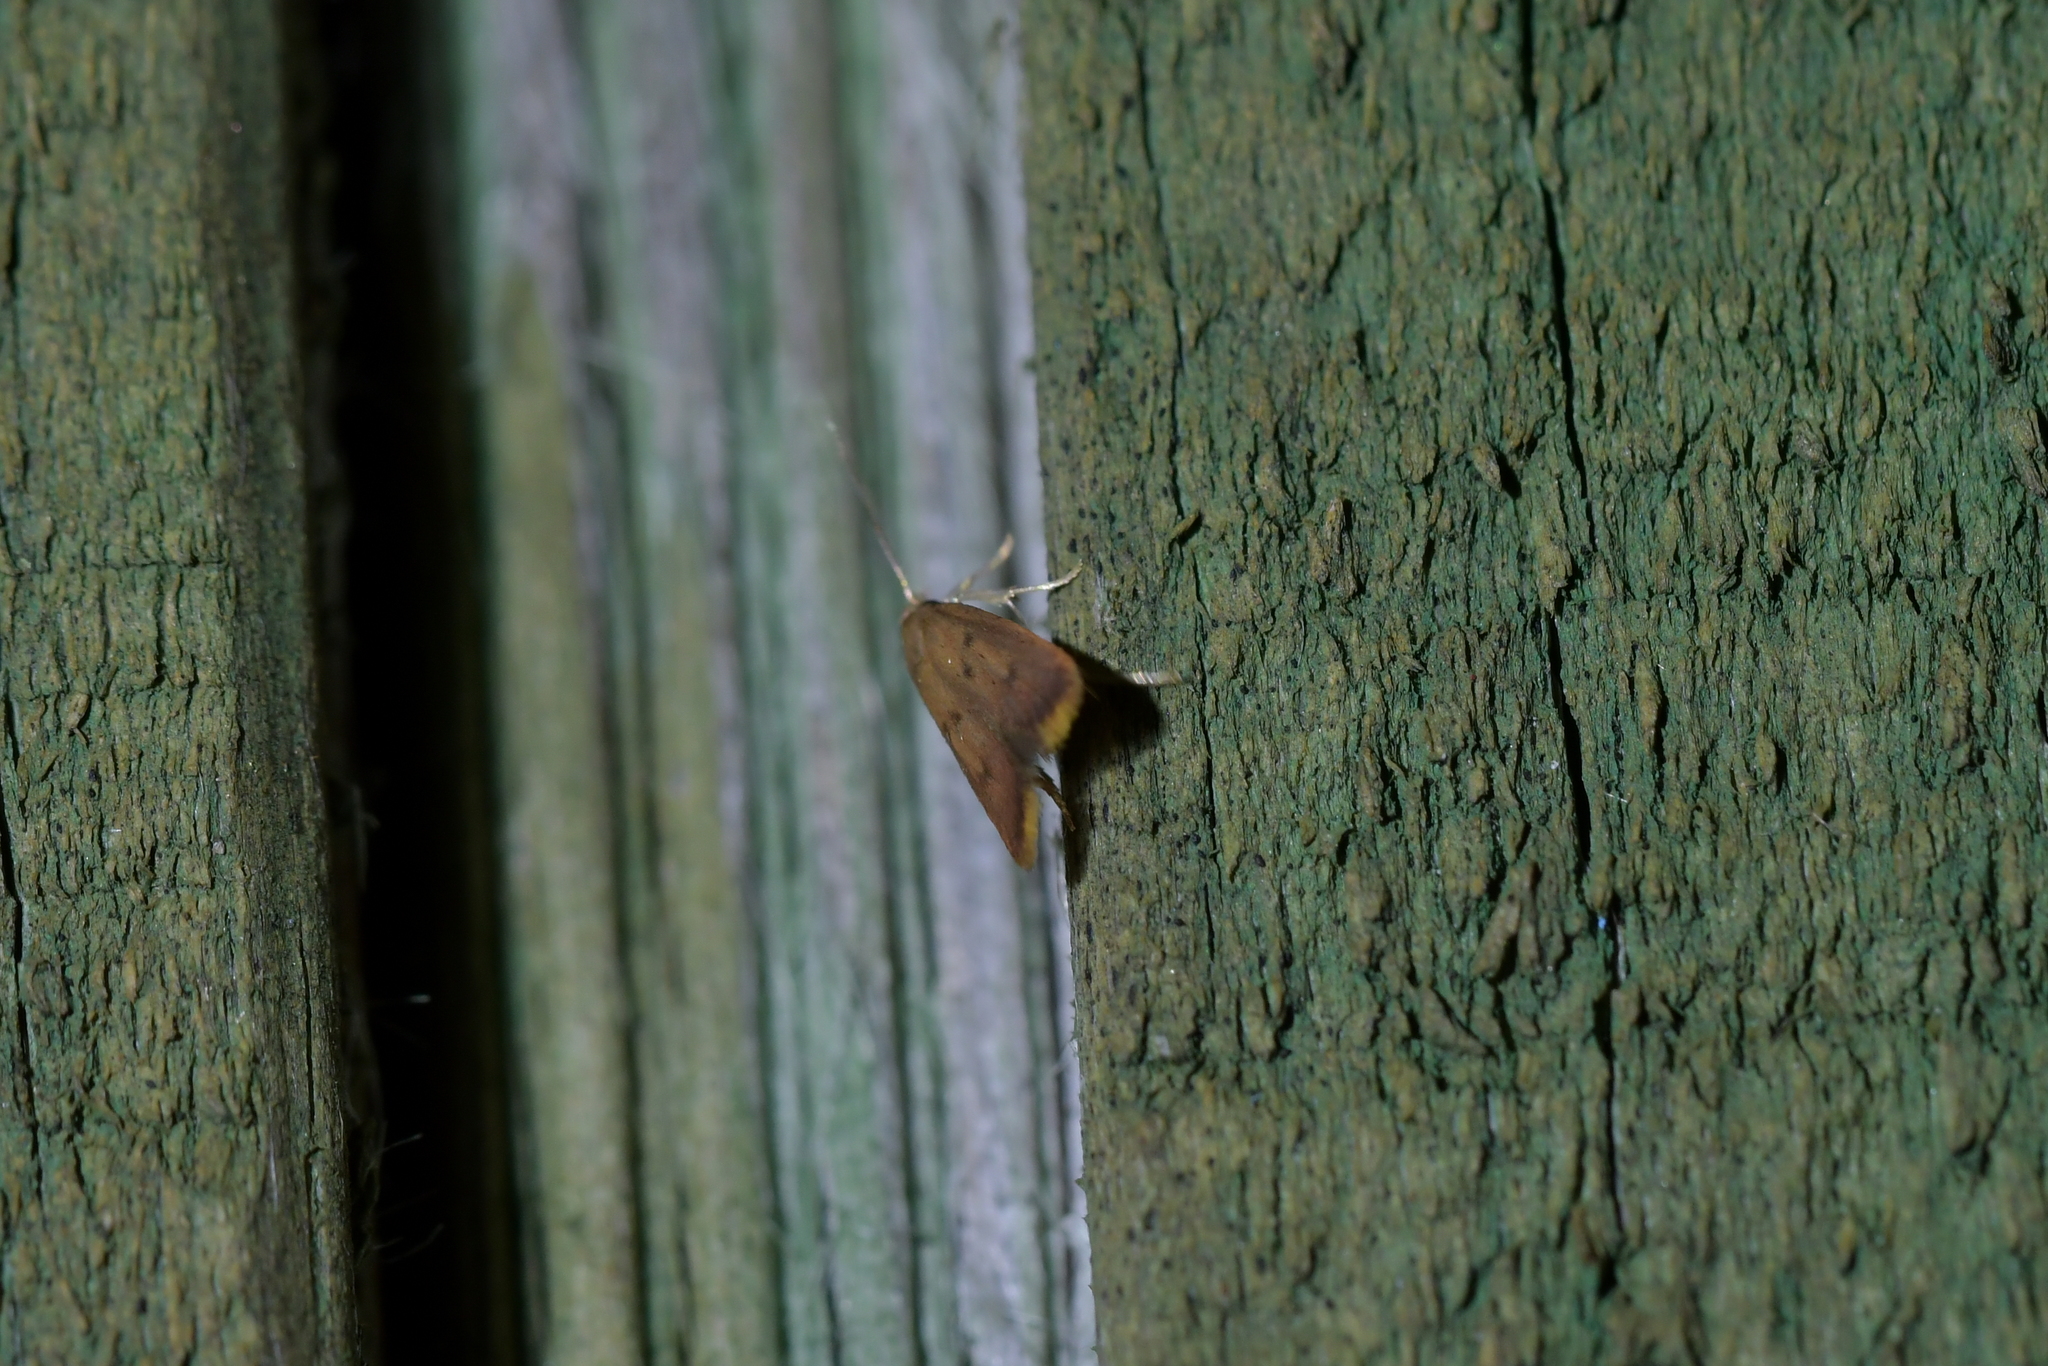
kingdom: Animalia
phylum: Arthropoda
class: Insecta
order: Lepidoptera
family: Oecophoridae
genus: Tachystola
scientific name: Tachystola acroxantha
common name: Ruddy streak
